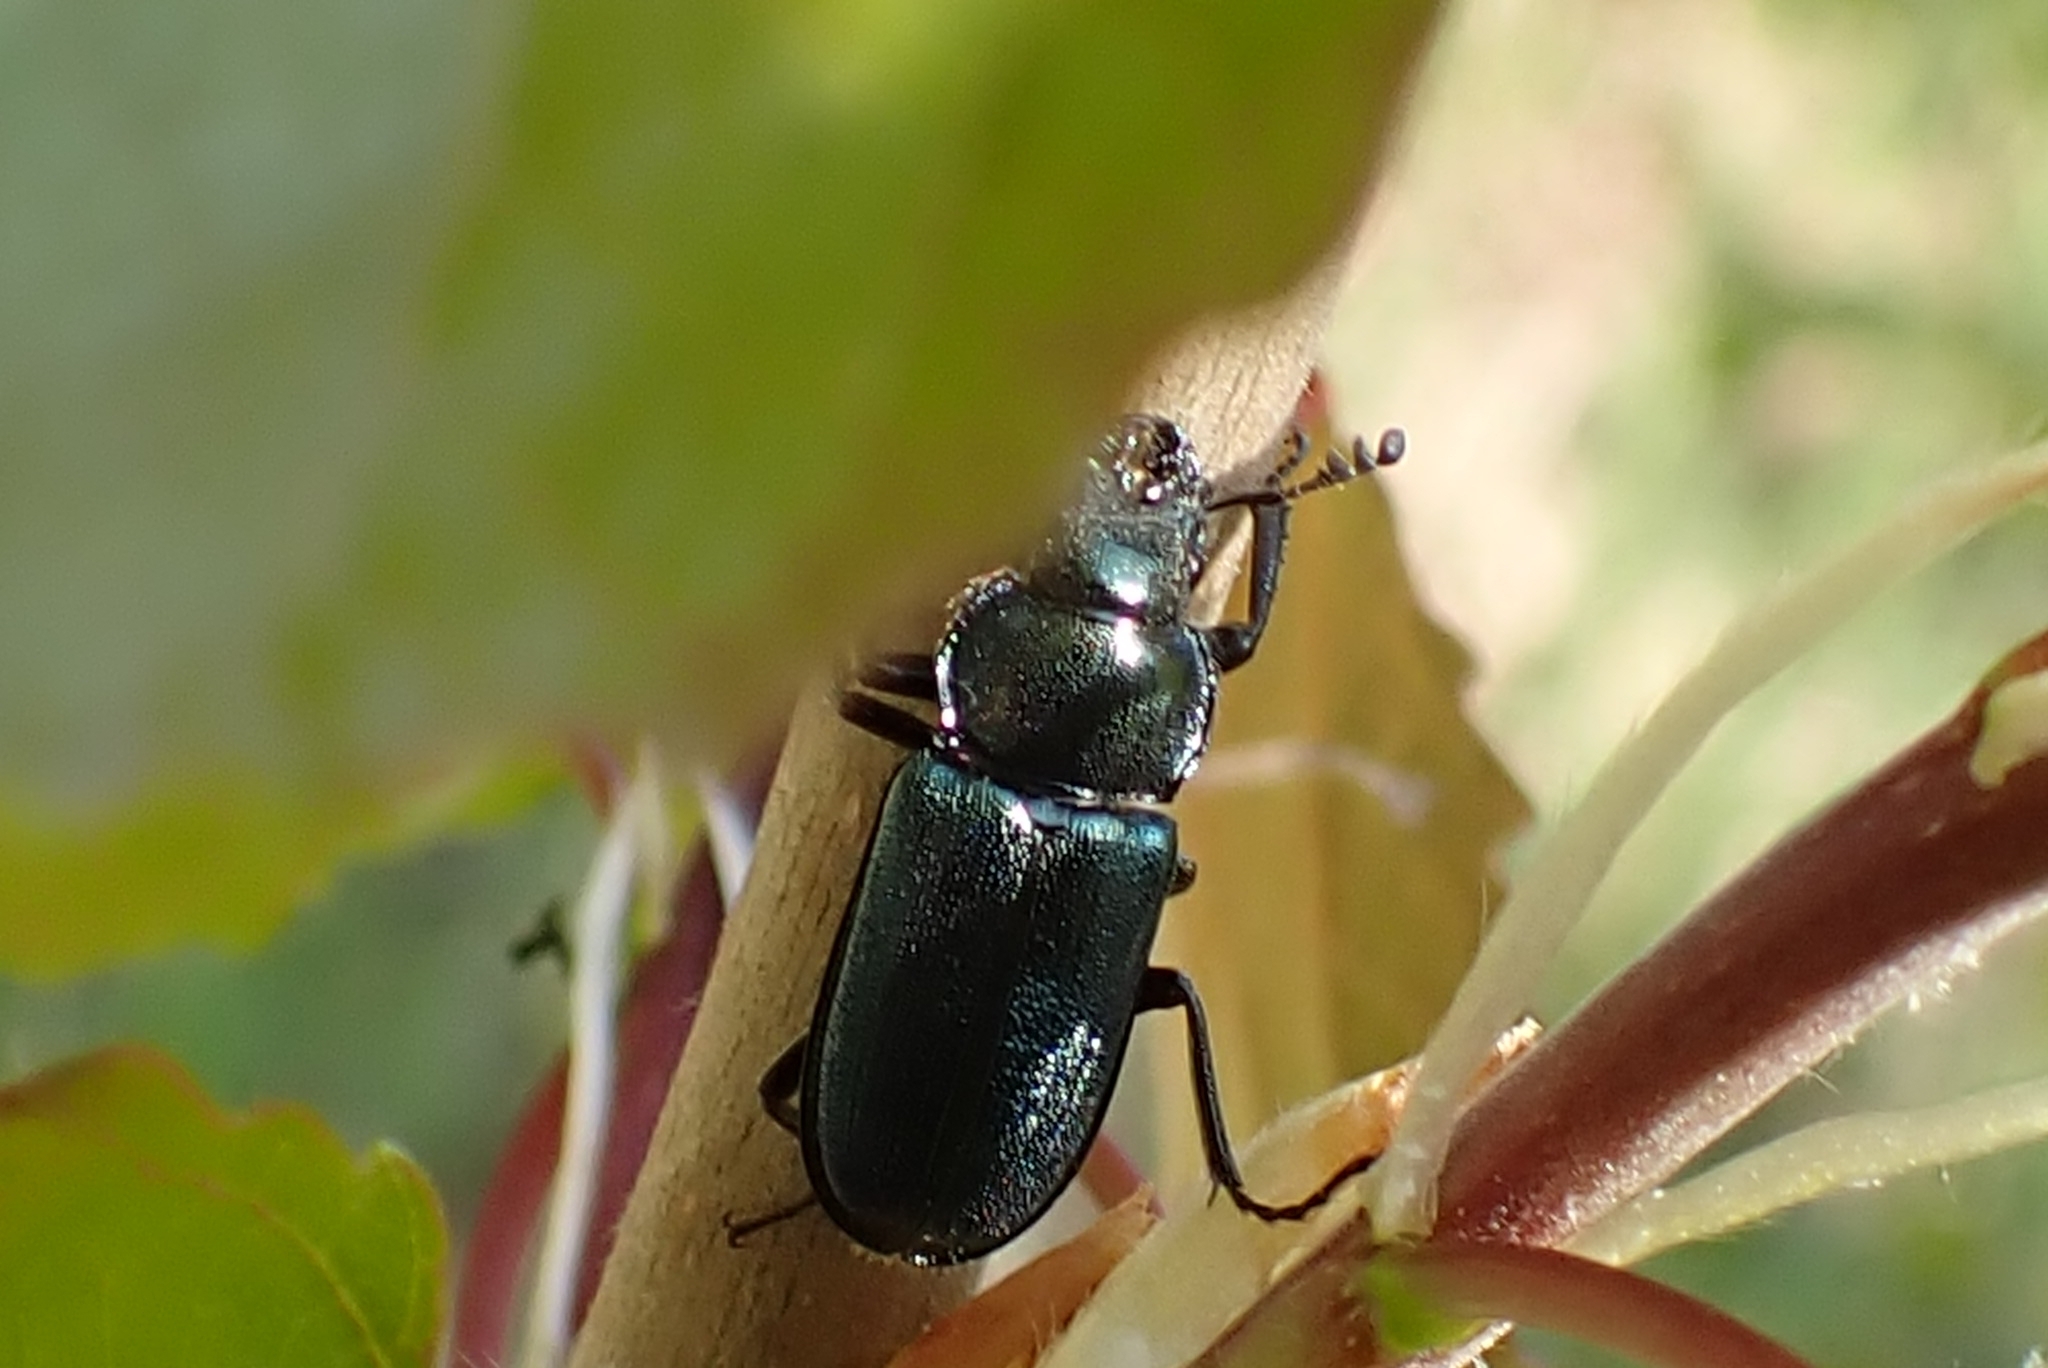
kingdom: Animalia
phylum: Arthropoda
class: Insecta
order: Coleoptera
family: Lucanidae
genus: Platycerus
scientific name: Platycerus caraboides
